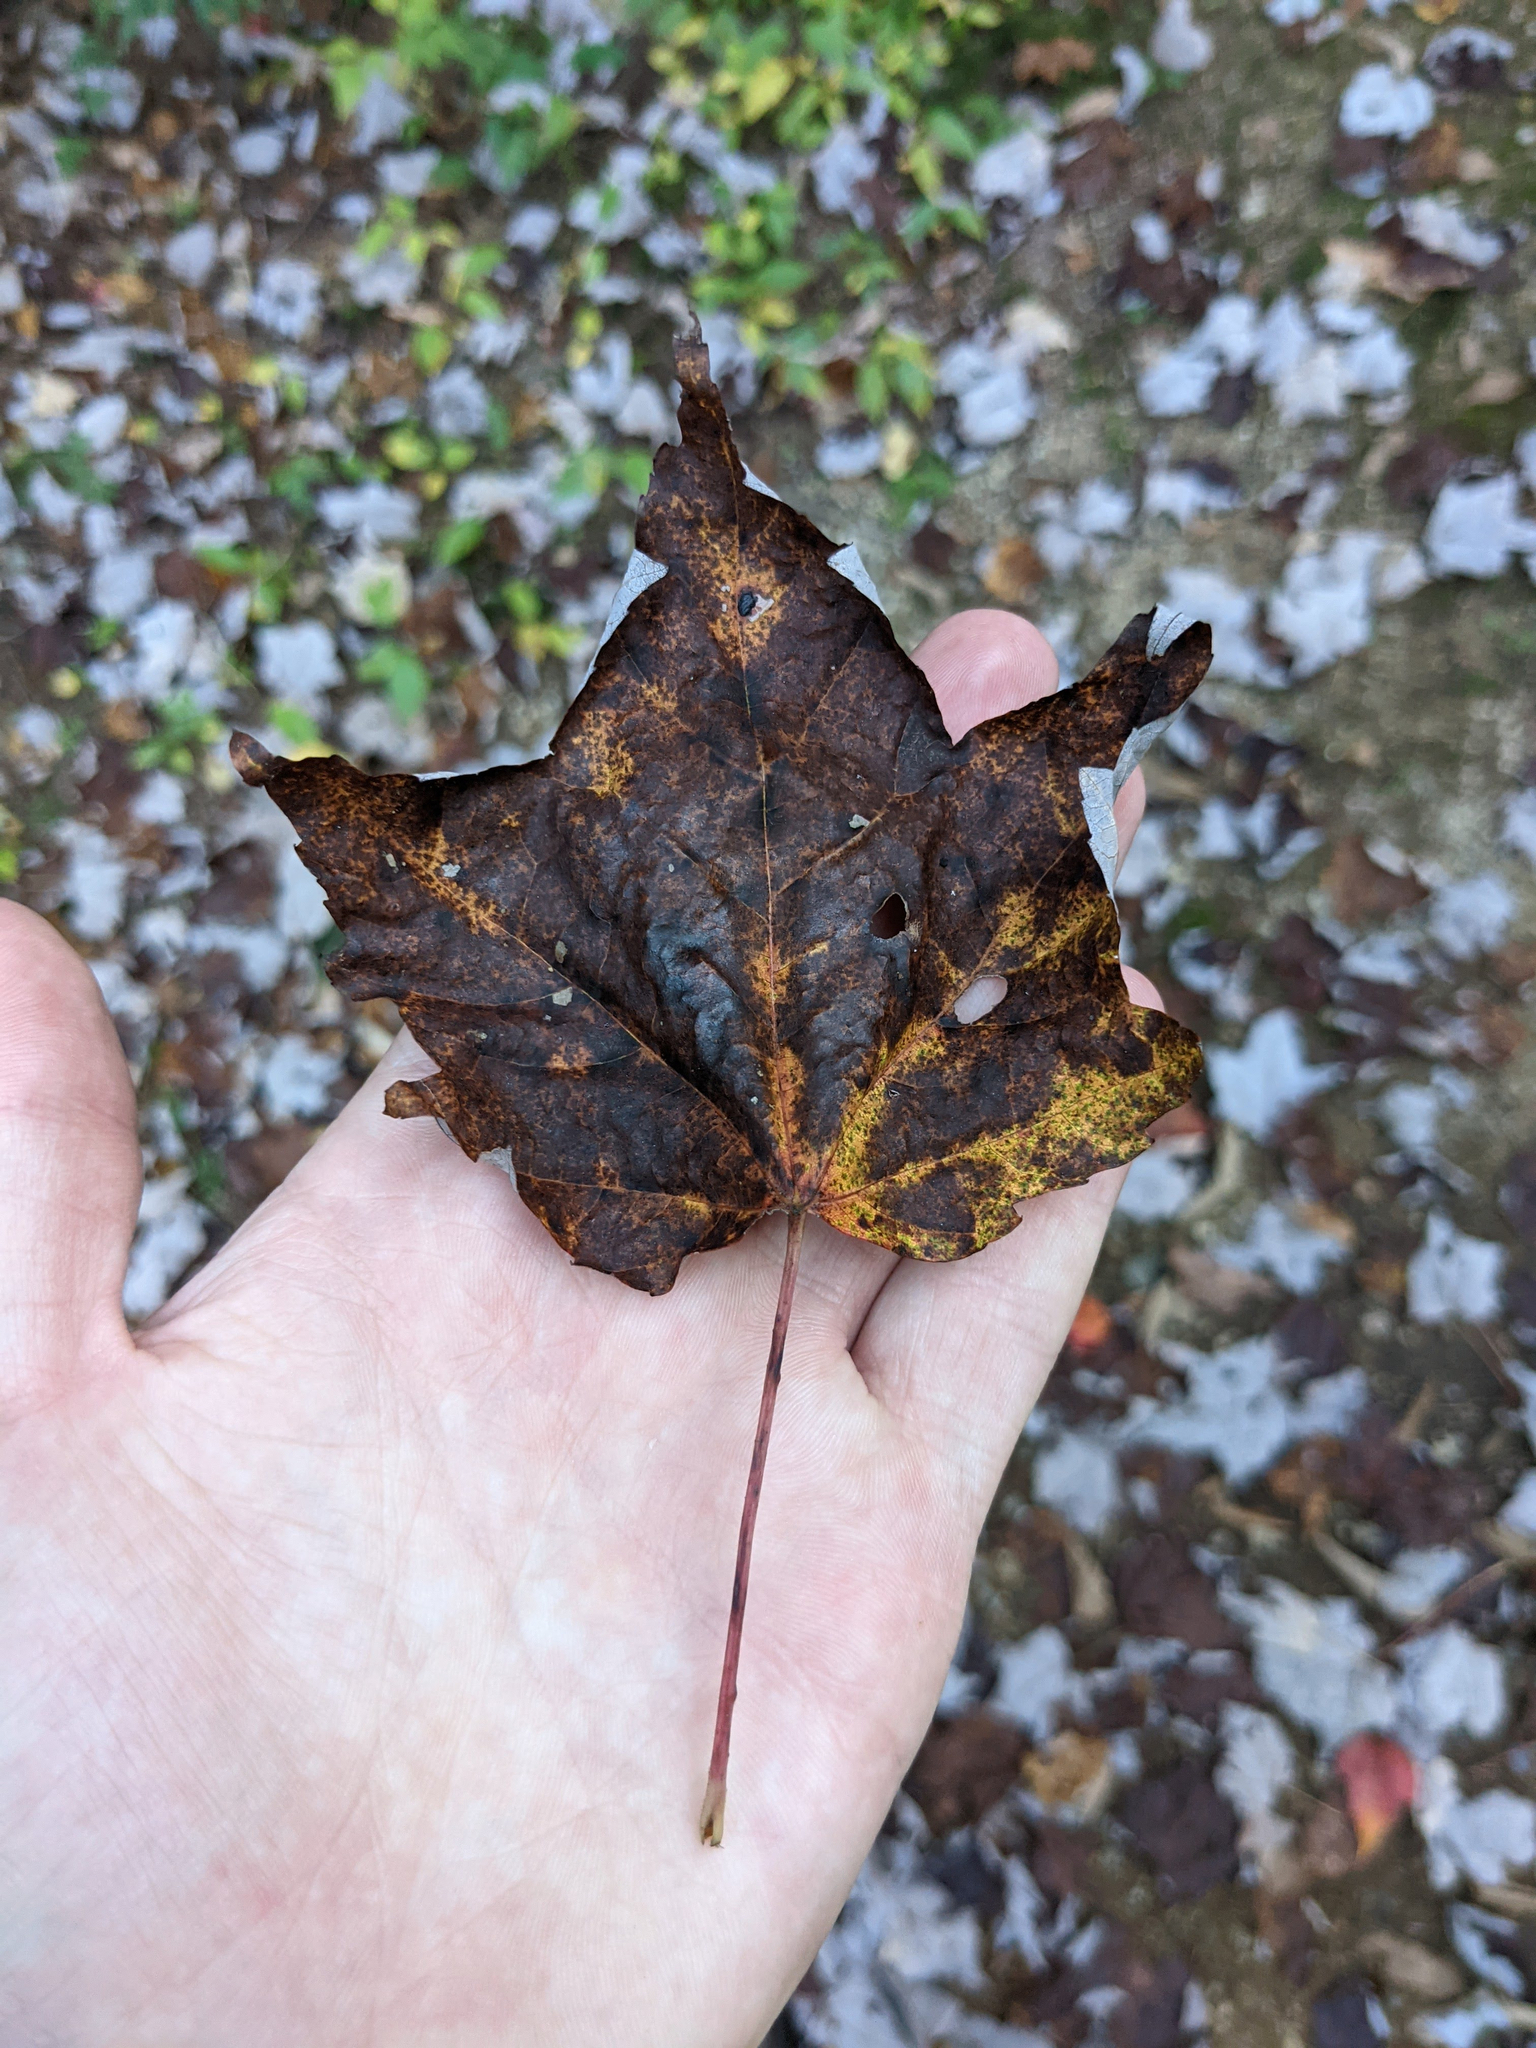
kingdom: Plantae
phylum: Tracheophyta
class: Magnoliopsida
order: Sapindales
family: Sapindaceae
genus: Acer
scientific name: Acer rubrum
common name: Red maple
